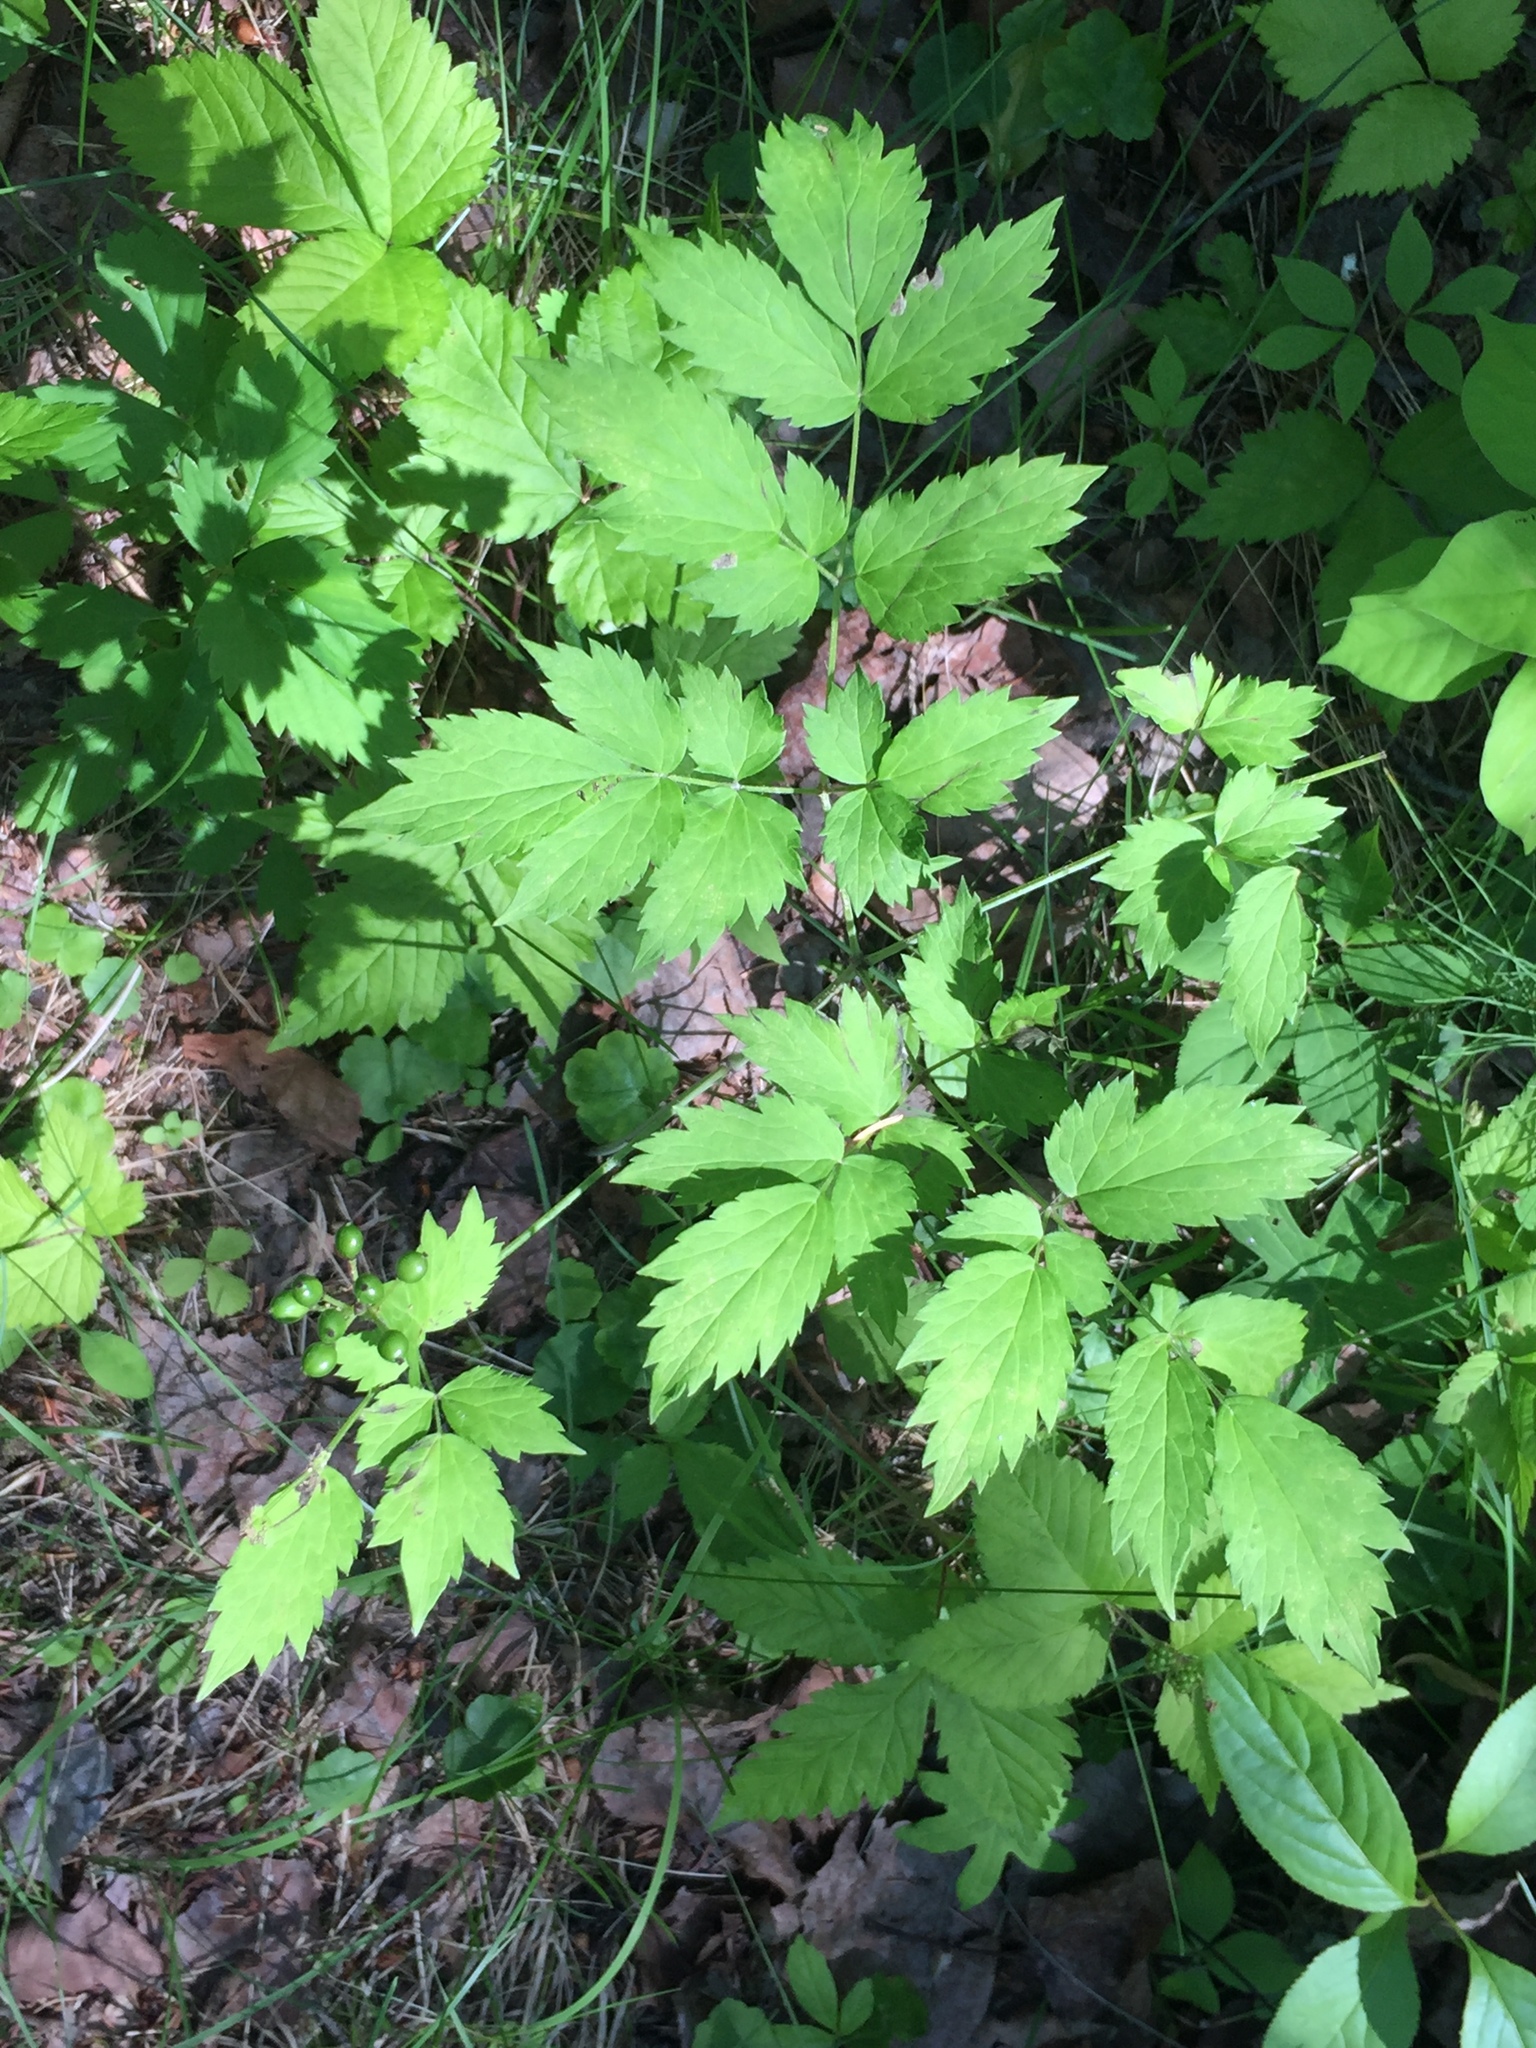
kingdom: Plantae
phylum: Tracheophyta
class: Magnoliopsida
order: Ranunculales
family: Ranunculaceae
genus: Actaea
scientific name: Actaea rubra
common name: Red baneberry
